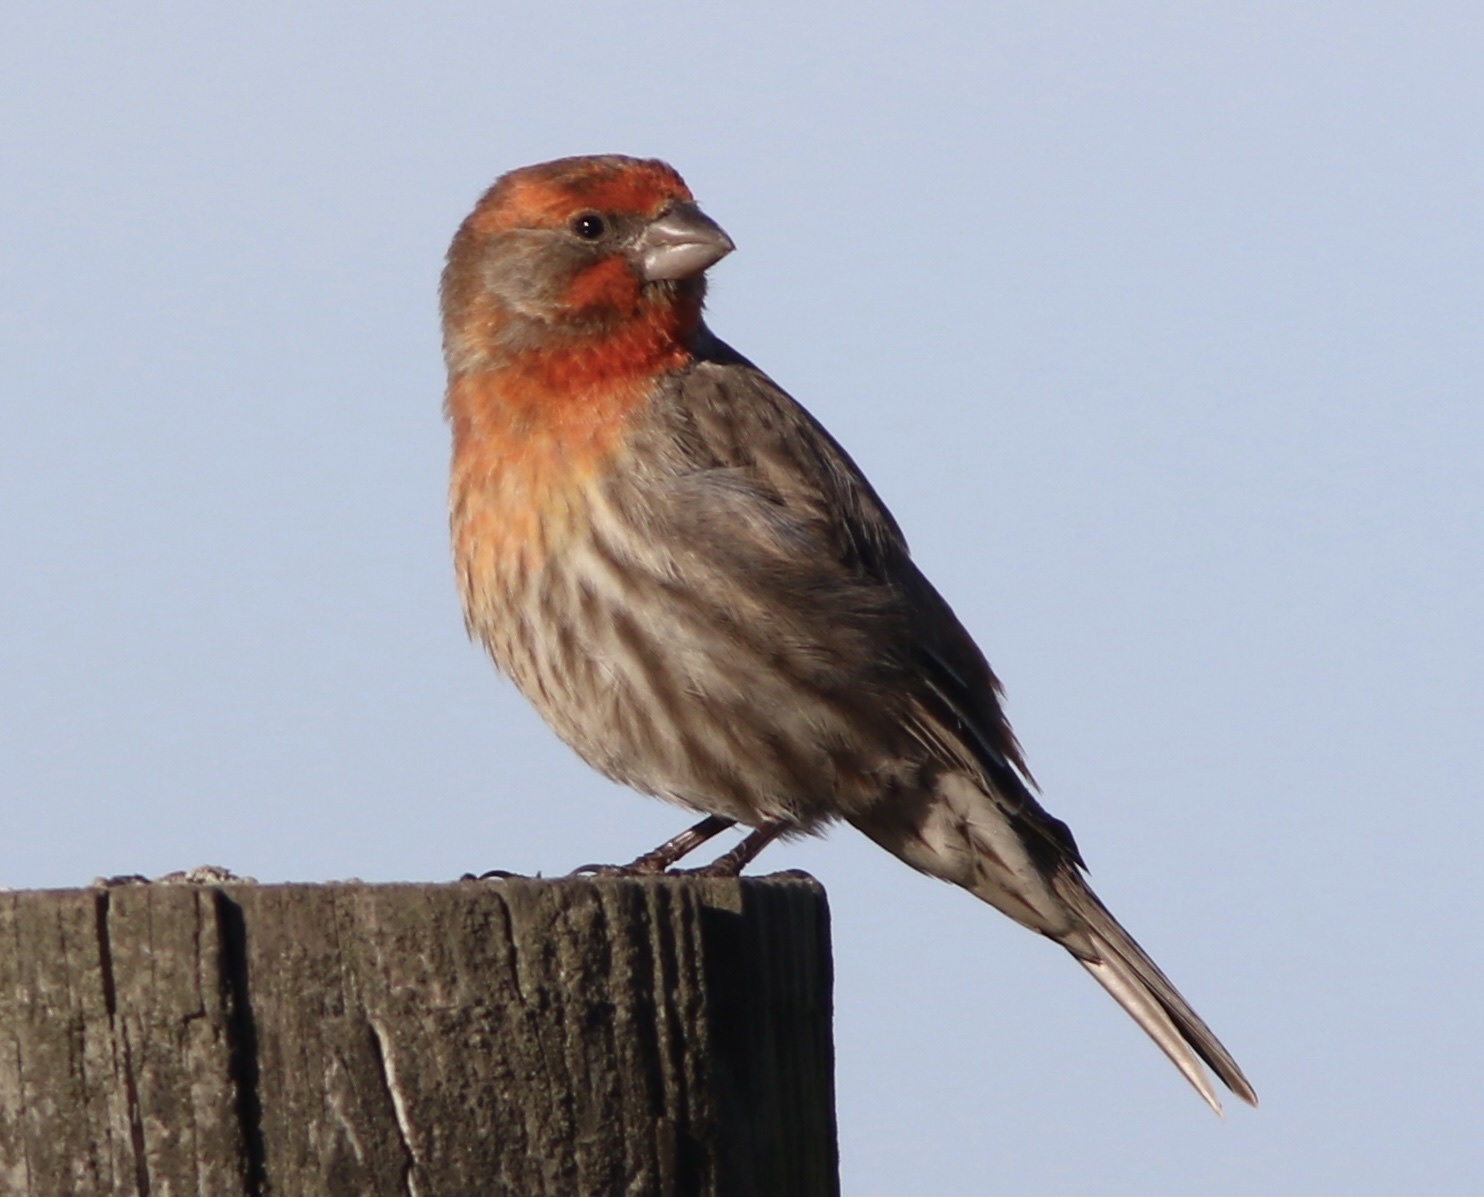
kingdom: Animalia
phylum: Chordata
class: Aves
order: Passeriformes
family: Fringillidae
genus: Haemorhous
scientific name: Haemorhous mexicanus
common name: House finch
